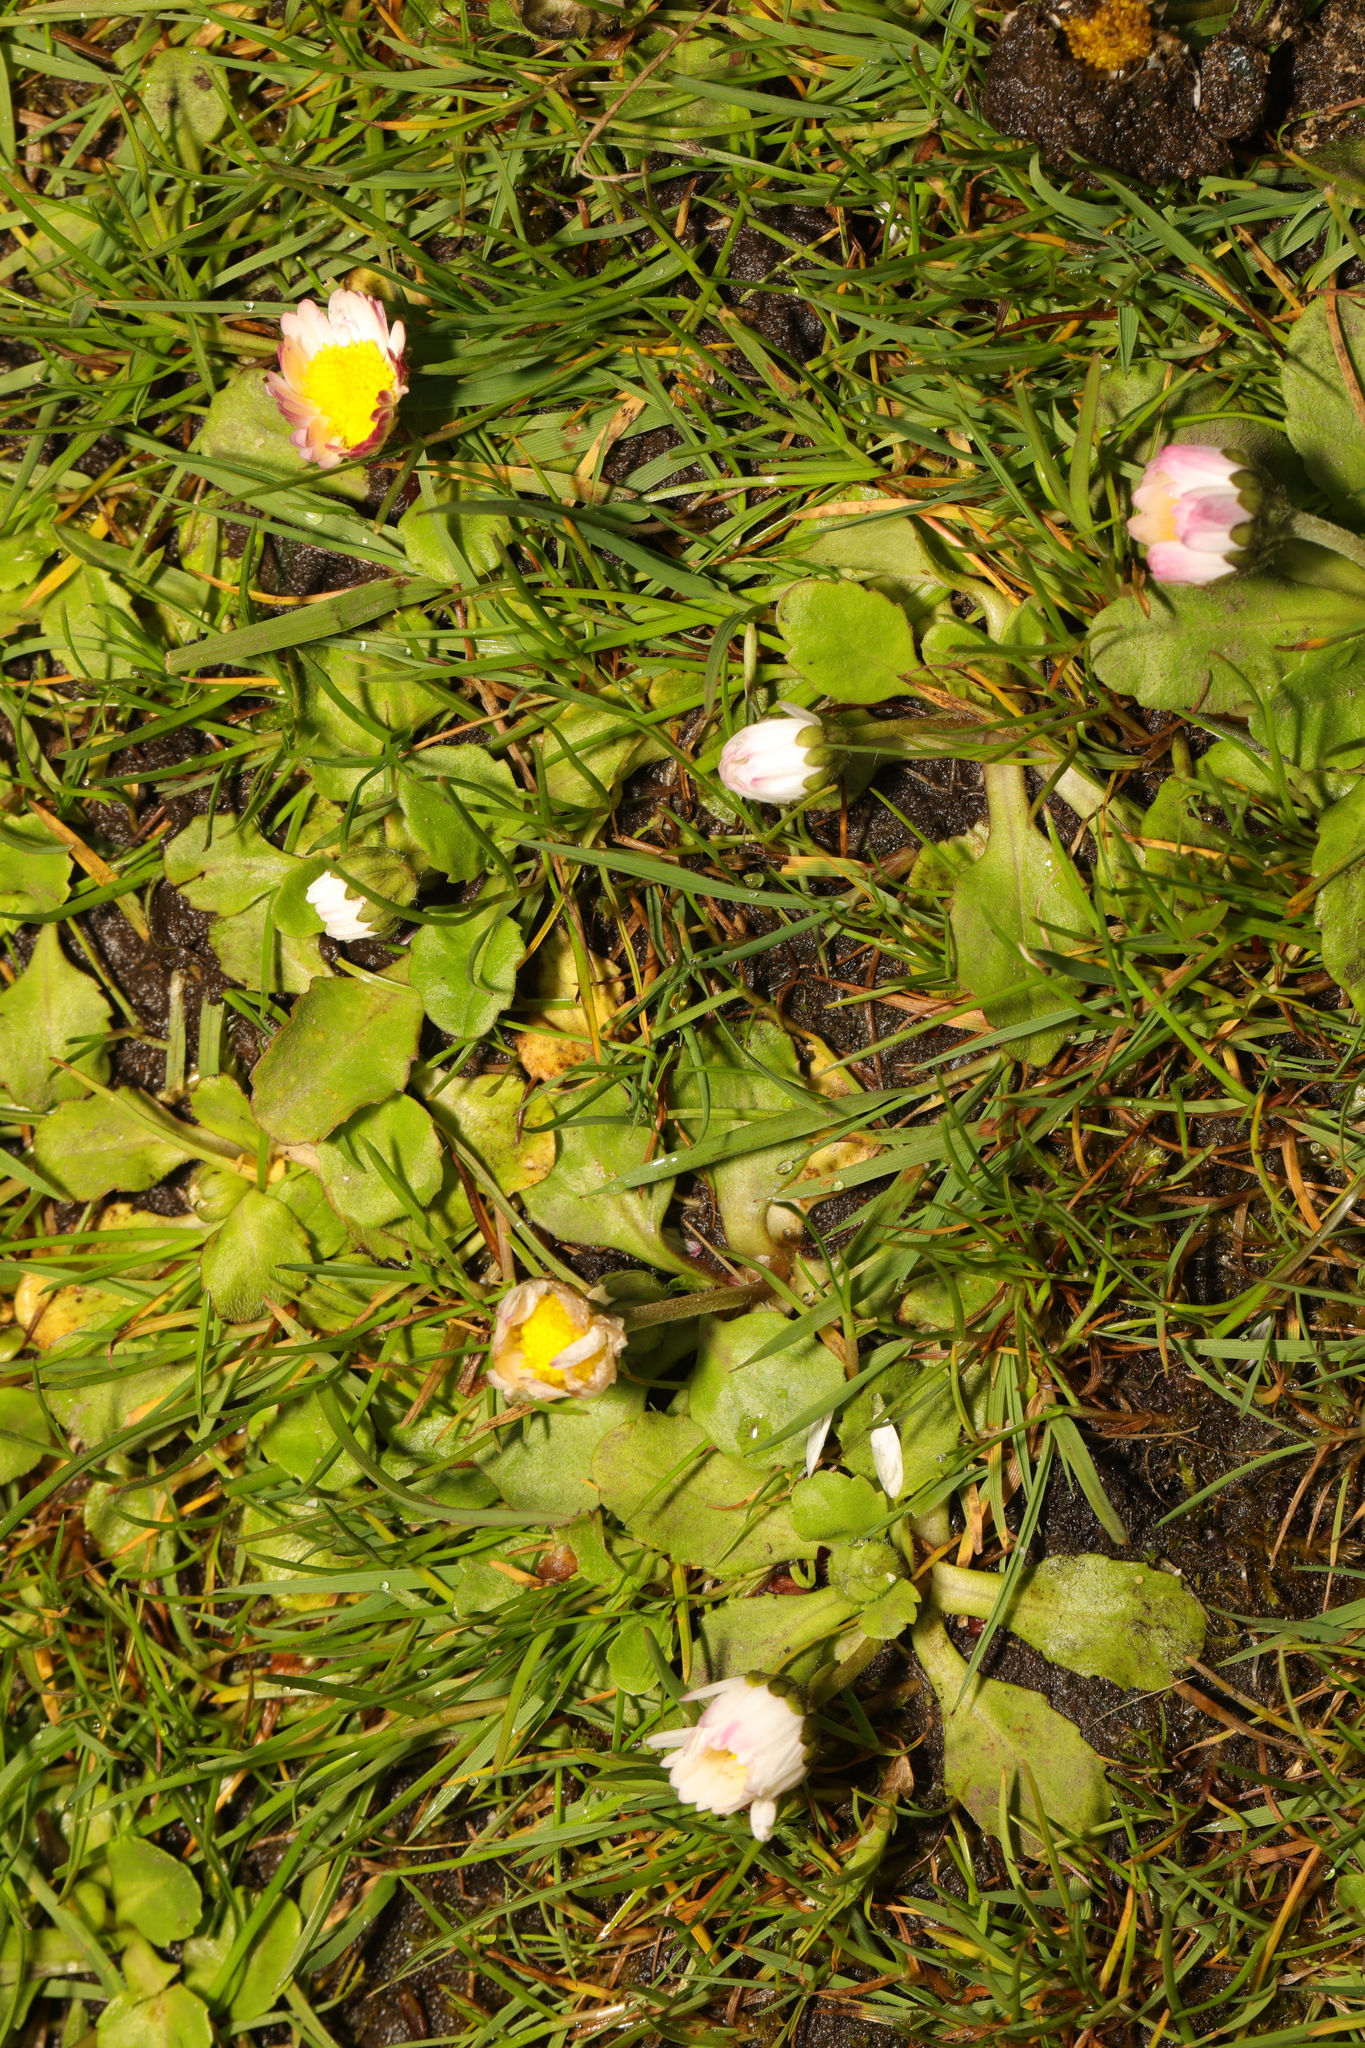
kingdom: Plantae
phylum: Tracheophyta
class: Magnoliopsida
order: Asterales
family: Asteraceae
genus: Bellis
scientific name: Bellis perennis
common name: Lawndaisy
